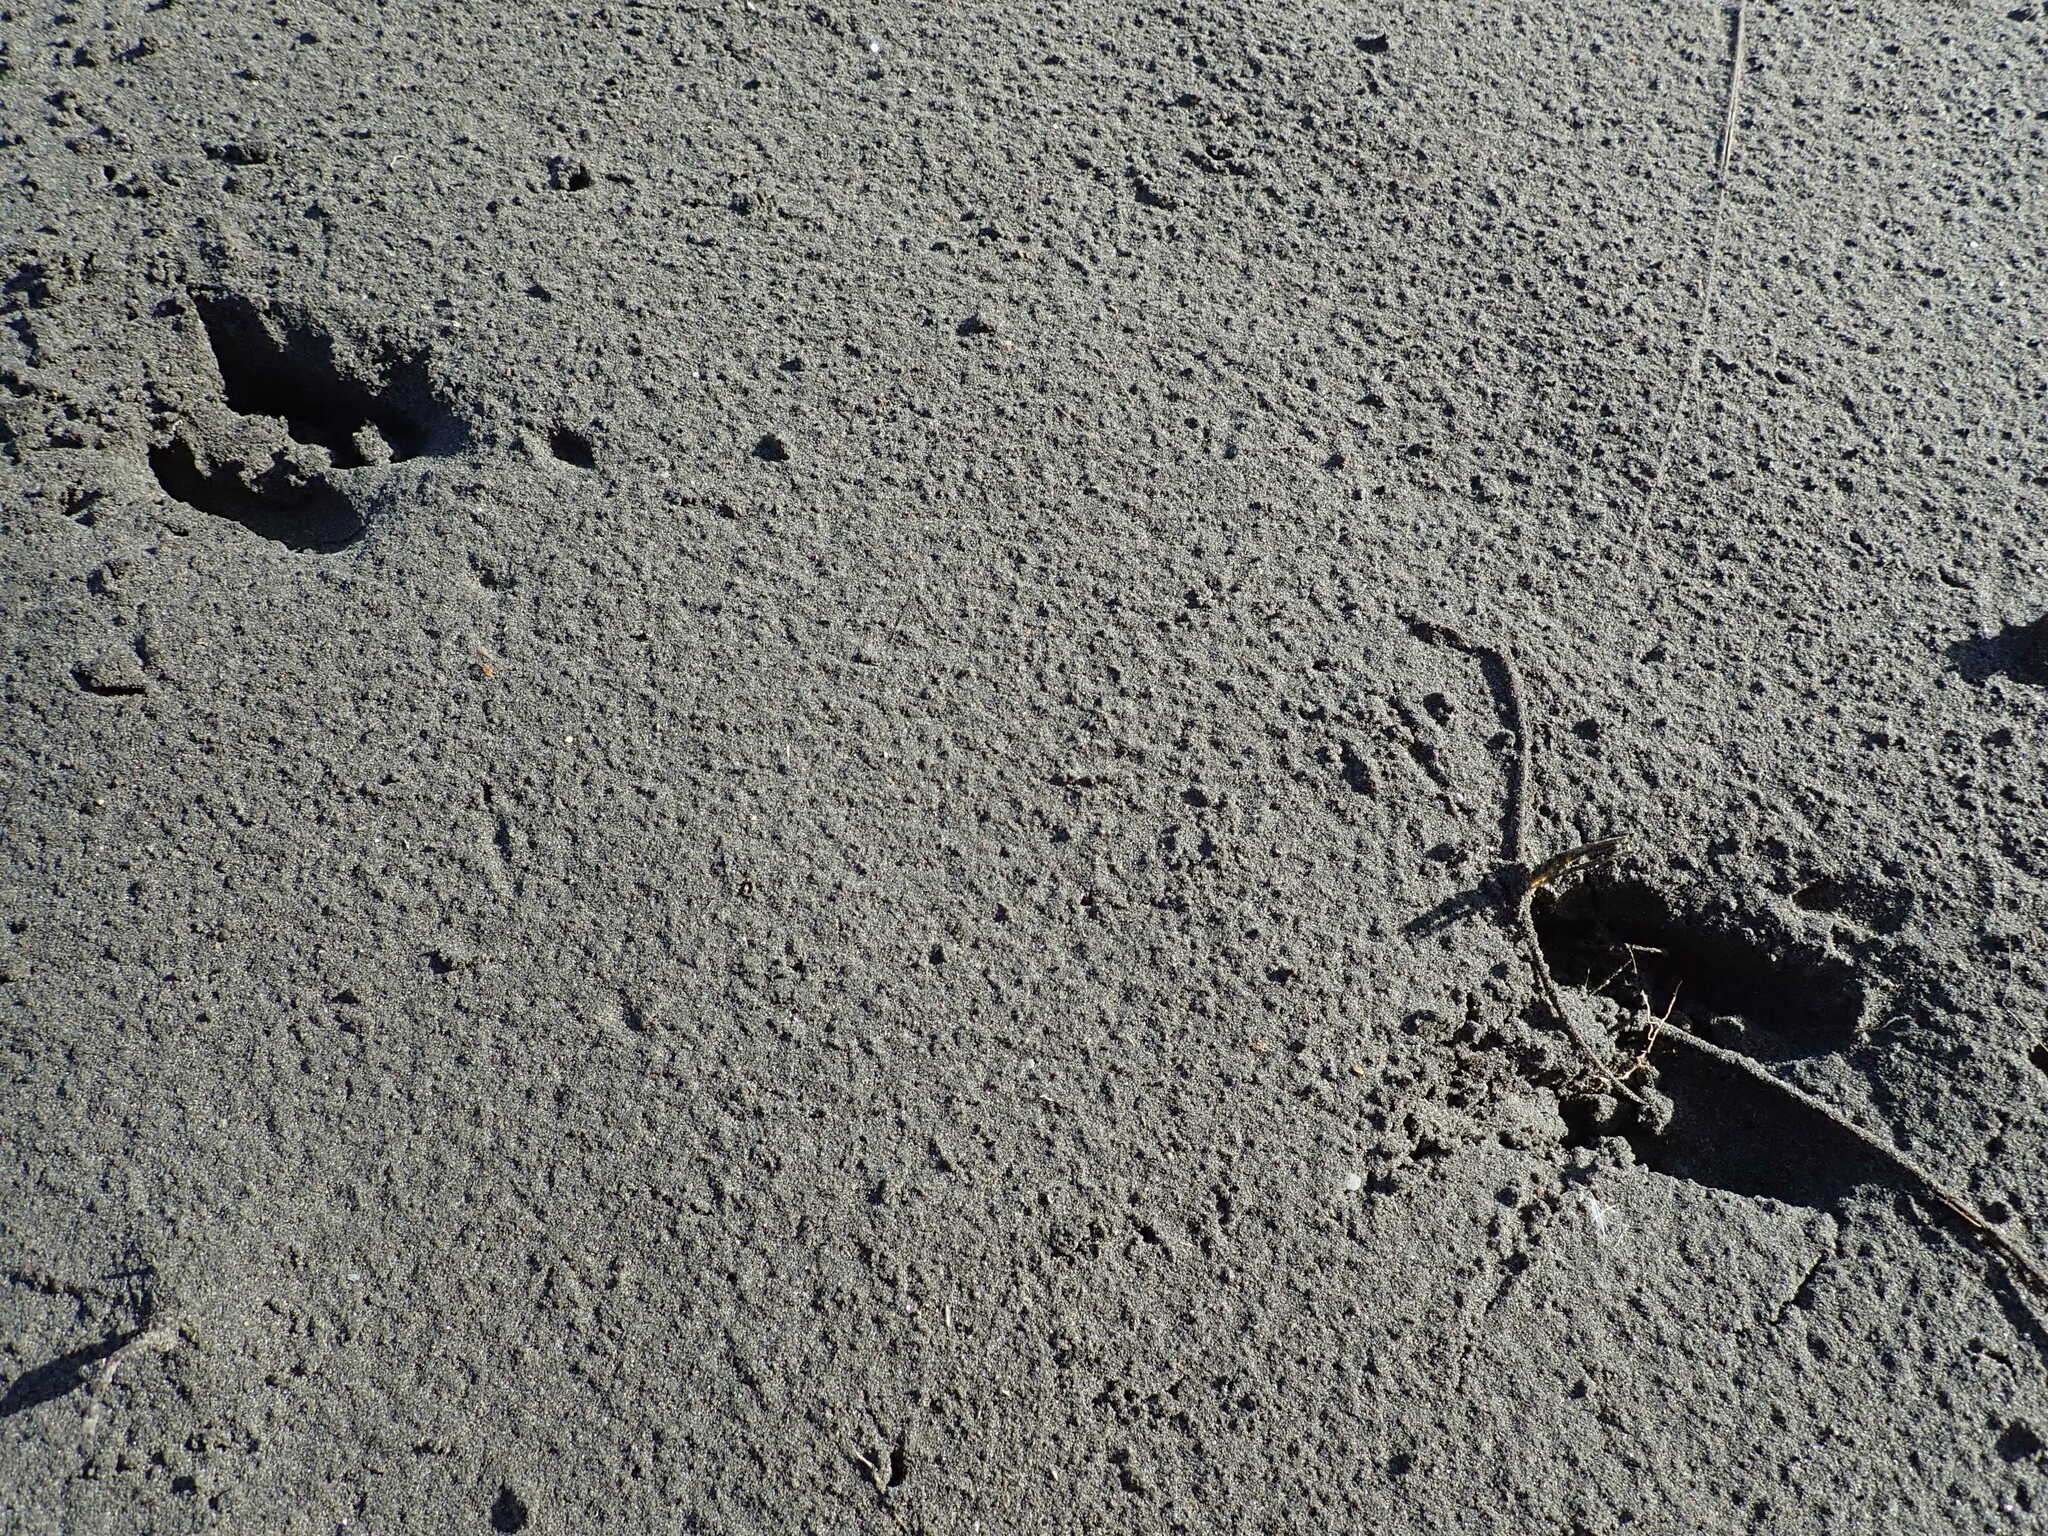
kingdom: Animalia
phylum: Chordata
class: Mammalia
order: Artiodactyla
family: Cervidae
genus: Rusa
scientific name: Rusa unicolor
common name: Sambar
